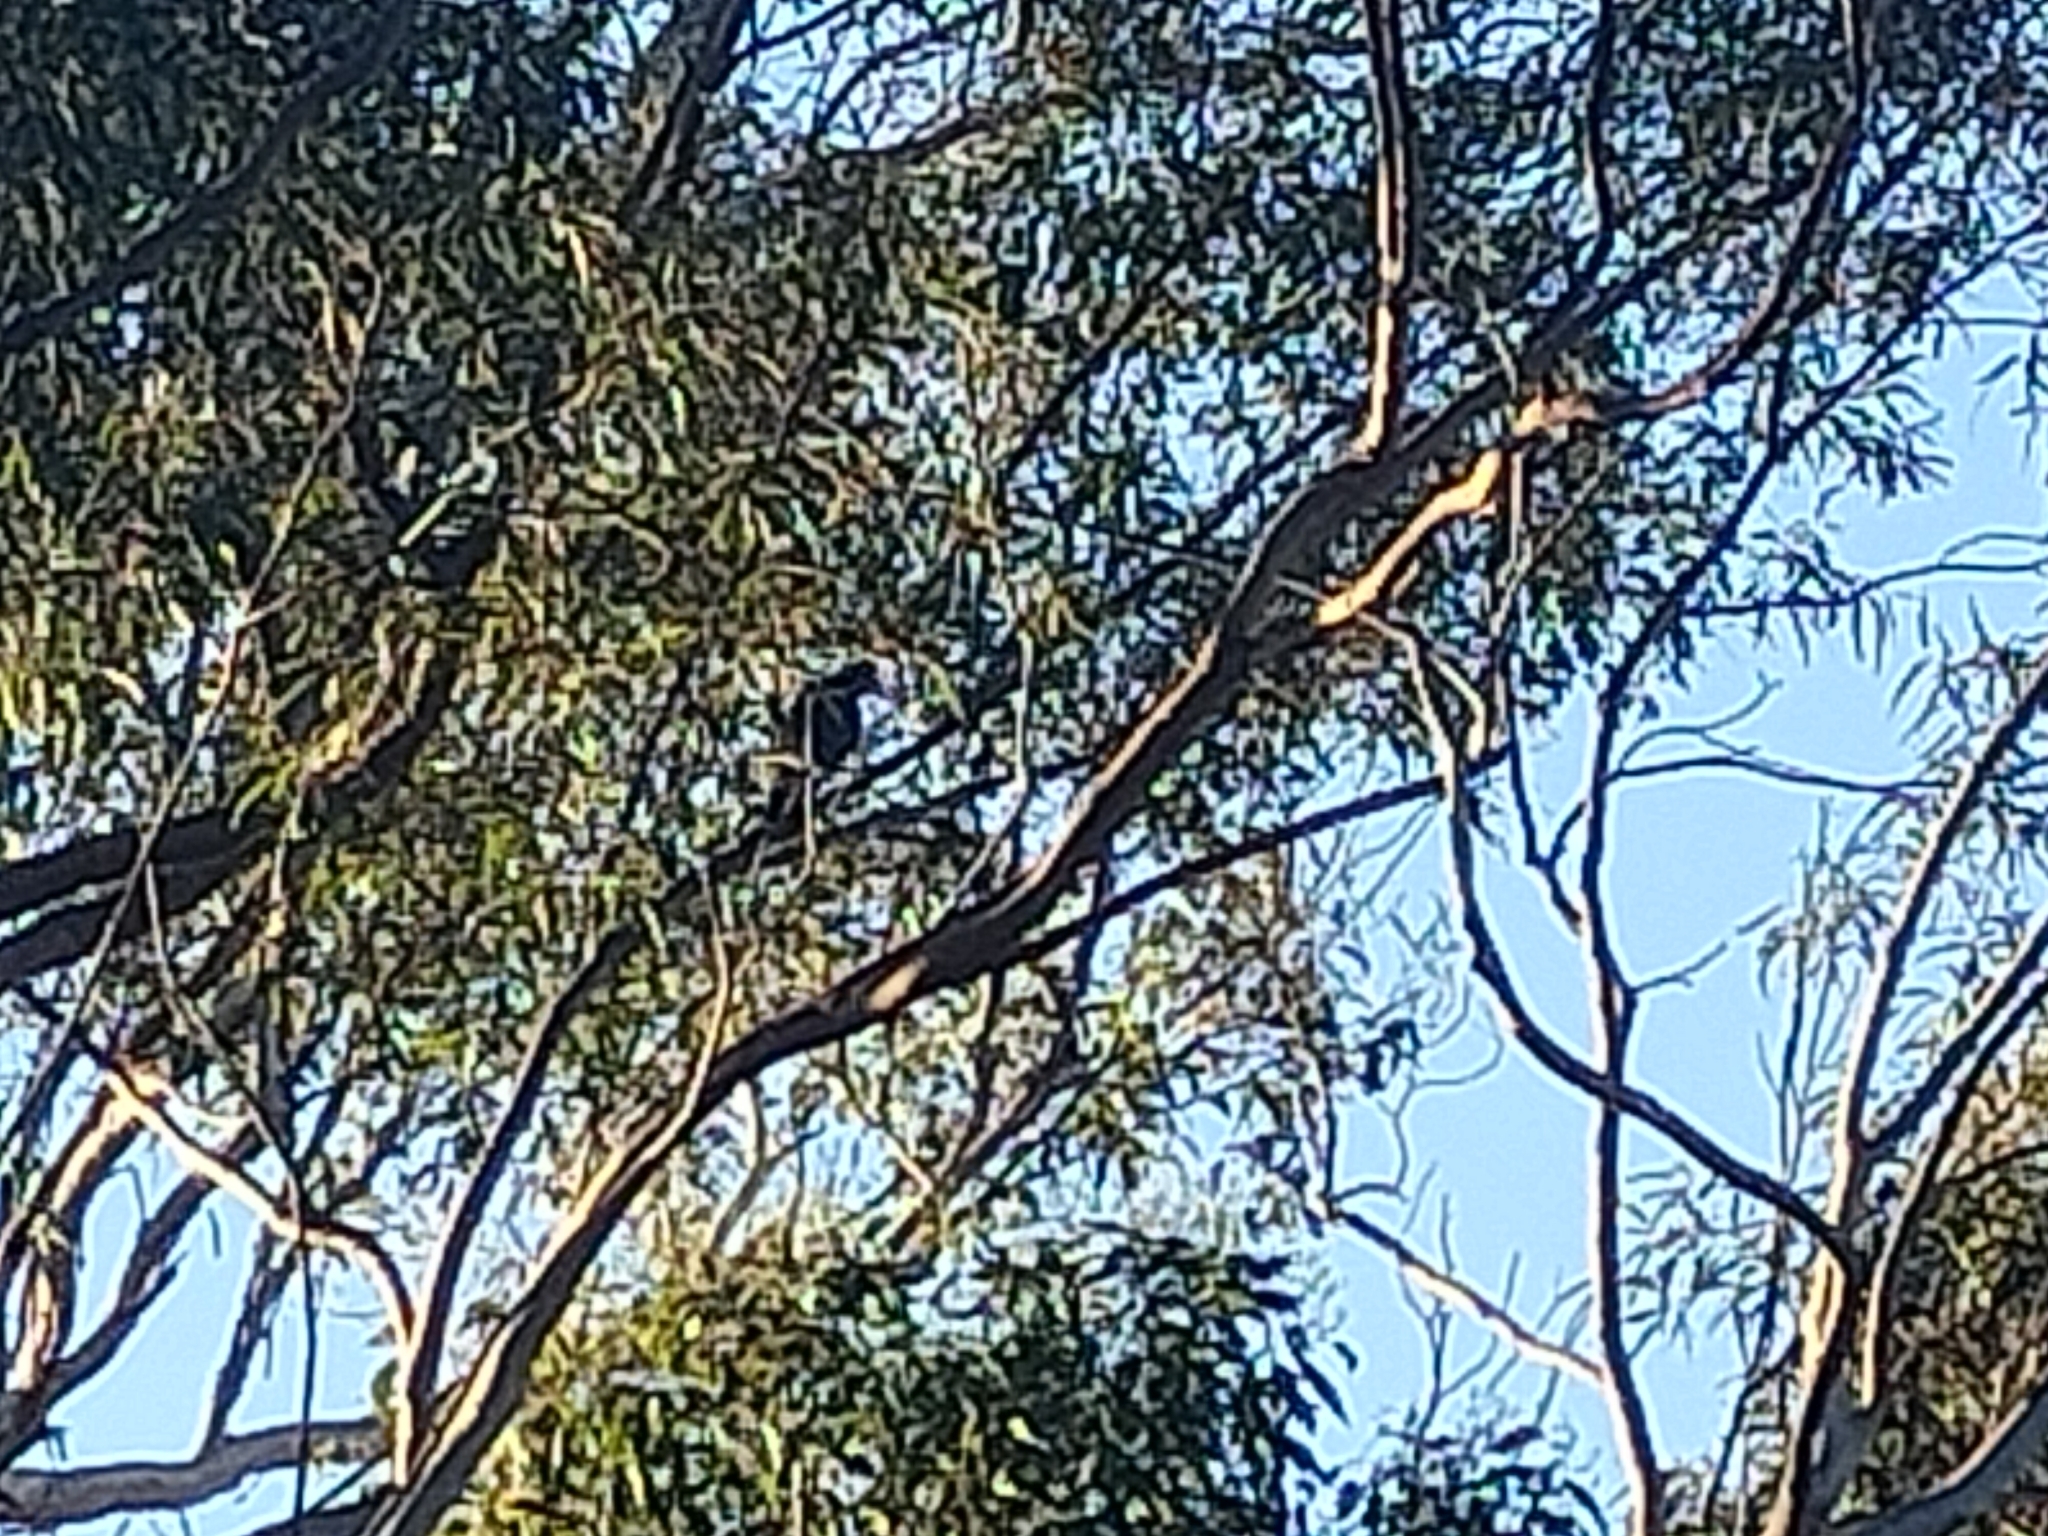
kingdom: Animalia
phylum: Chordata
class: Aves
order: Passeriformes
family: Cracticidae
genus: Gymnorhina
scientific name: Gymnorhina tibicen
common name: Australian magpie
